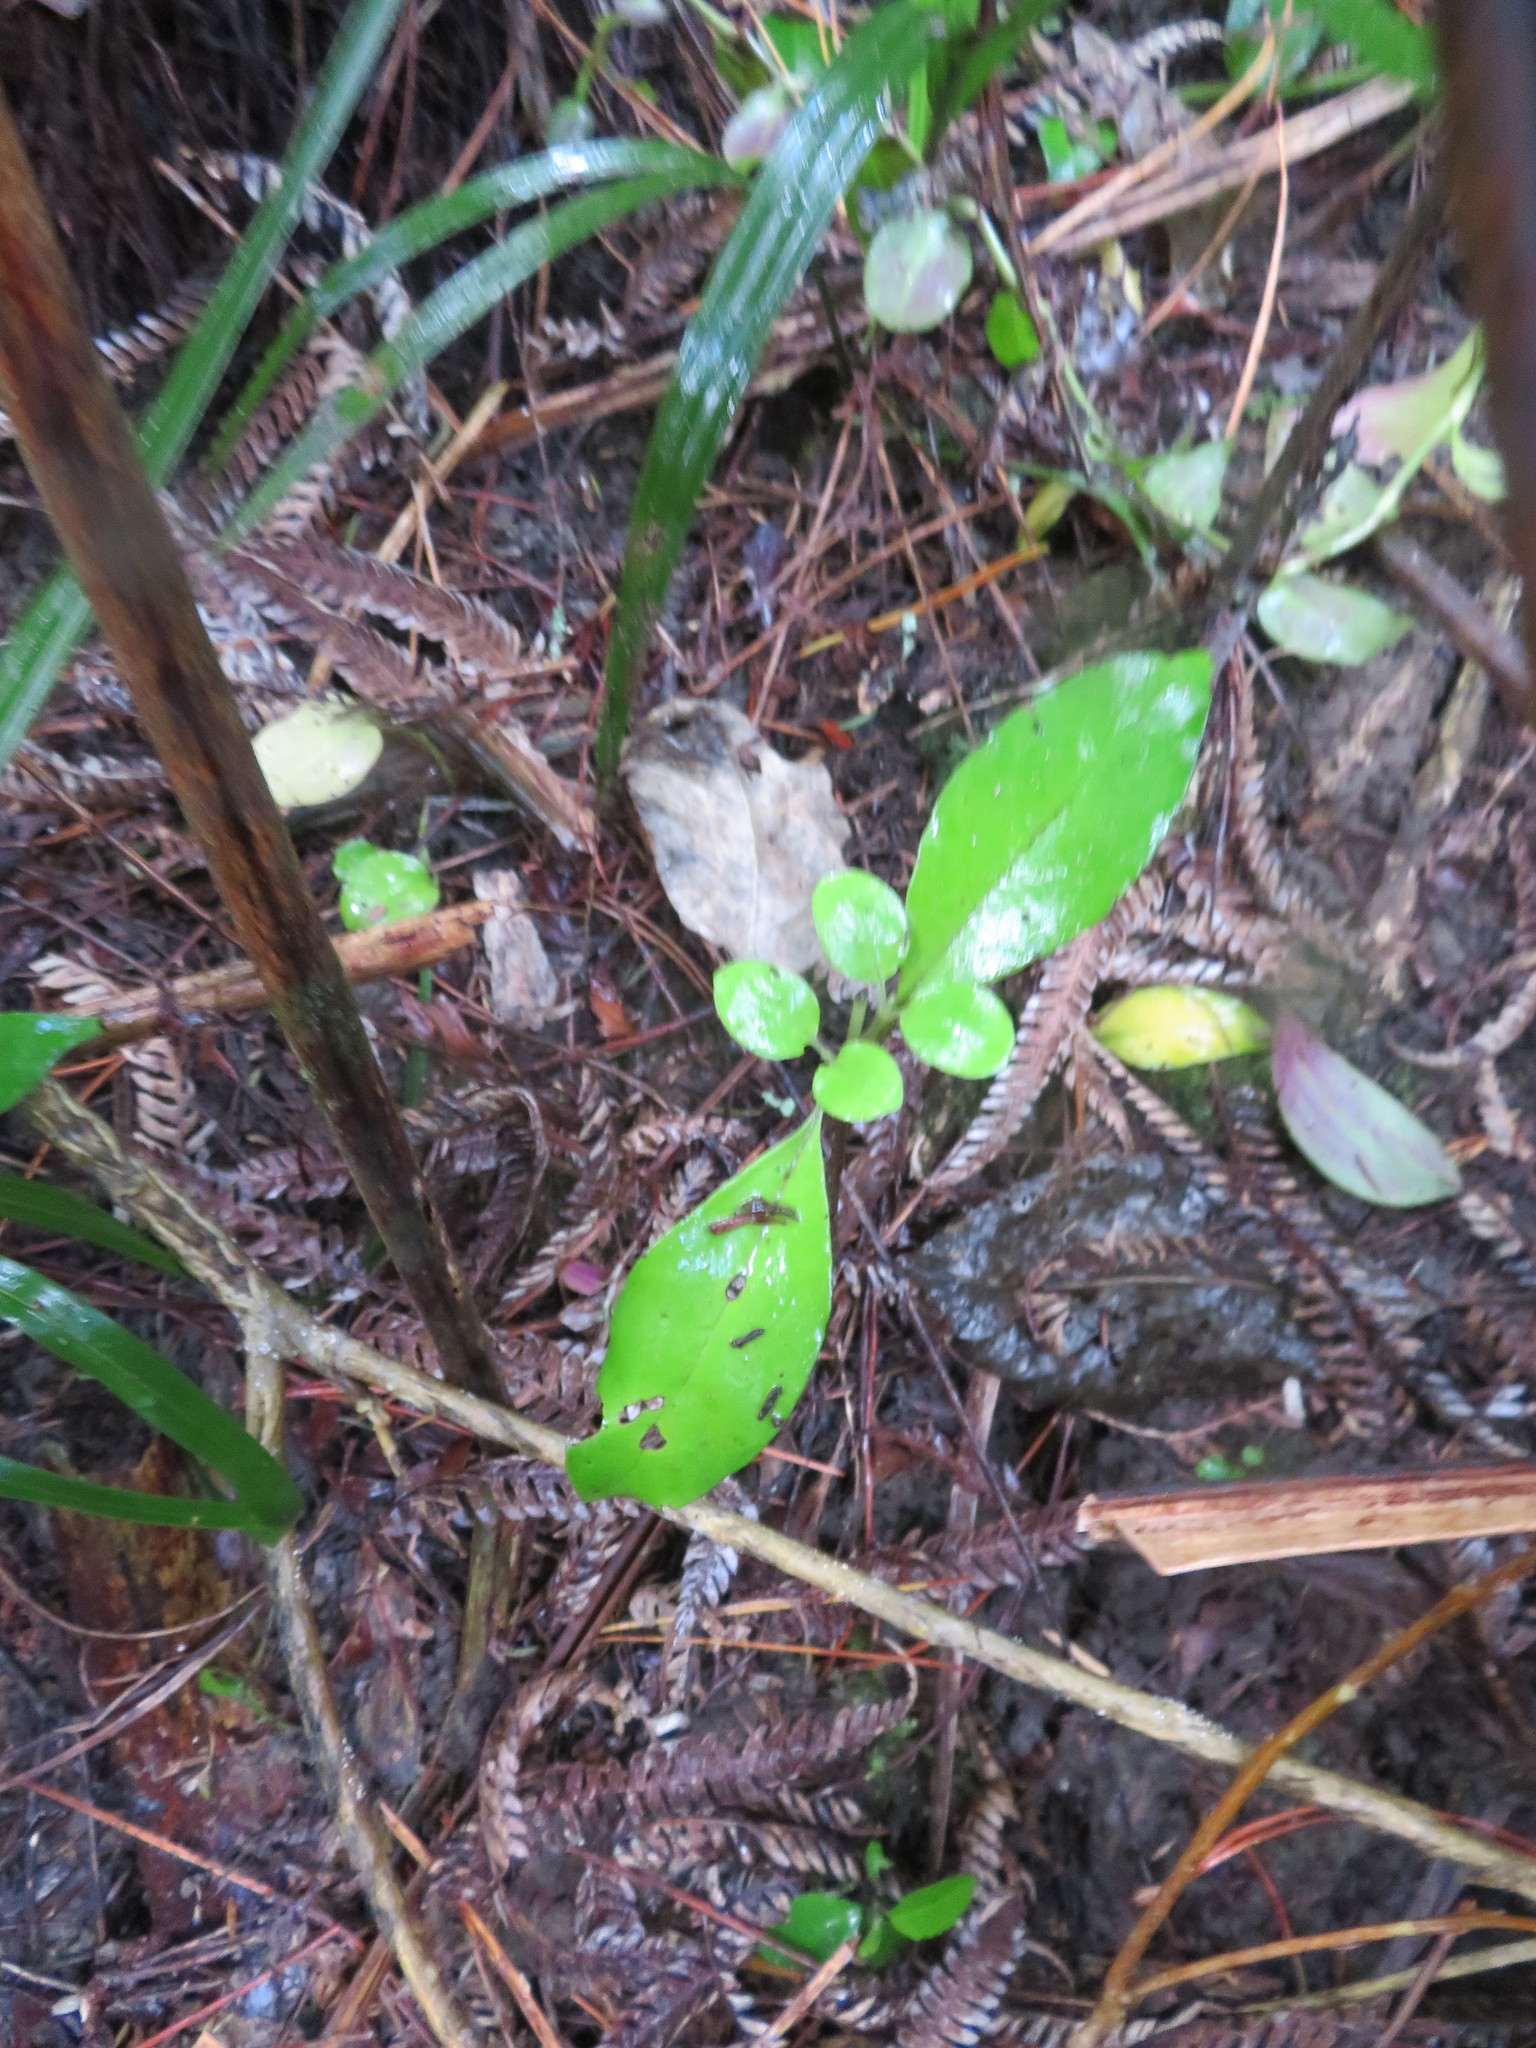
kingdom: Plantae
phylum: Tracheophyta
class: Magnoliopsida
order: Sapindales
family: Meliaceae
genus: Didymocheton
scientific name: Didymocheton spectabilis
